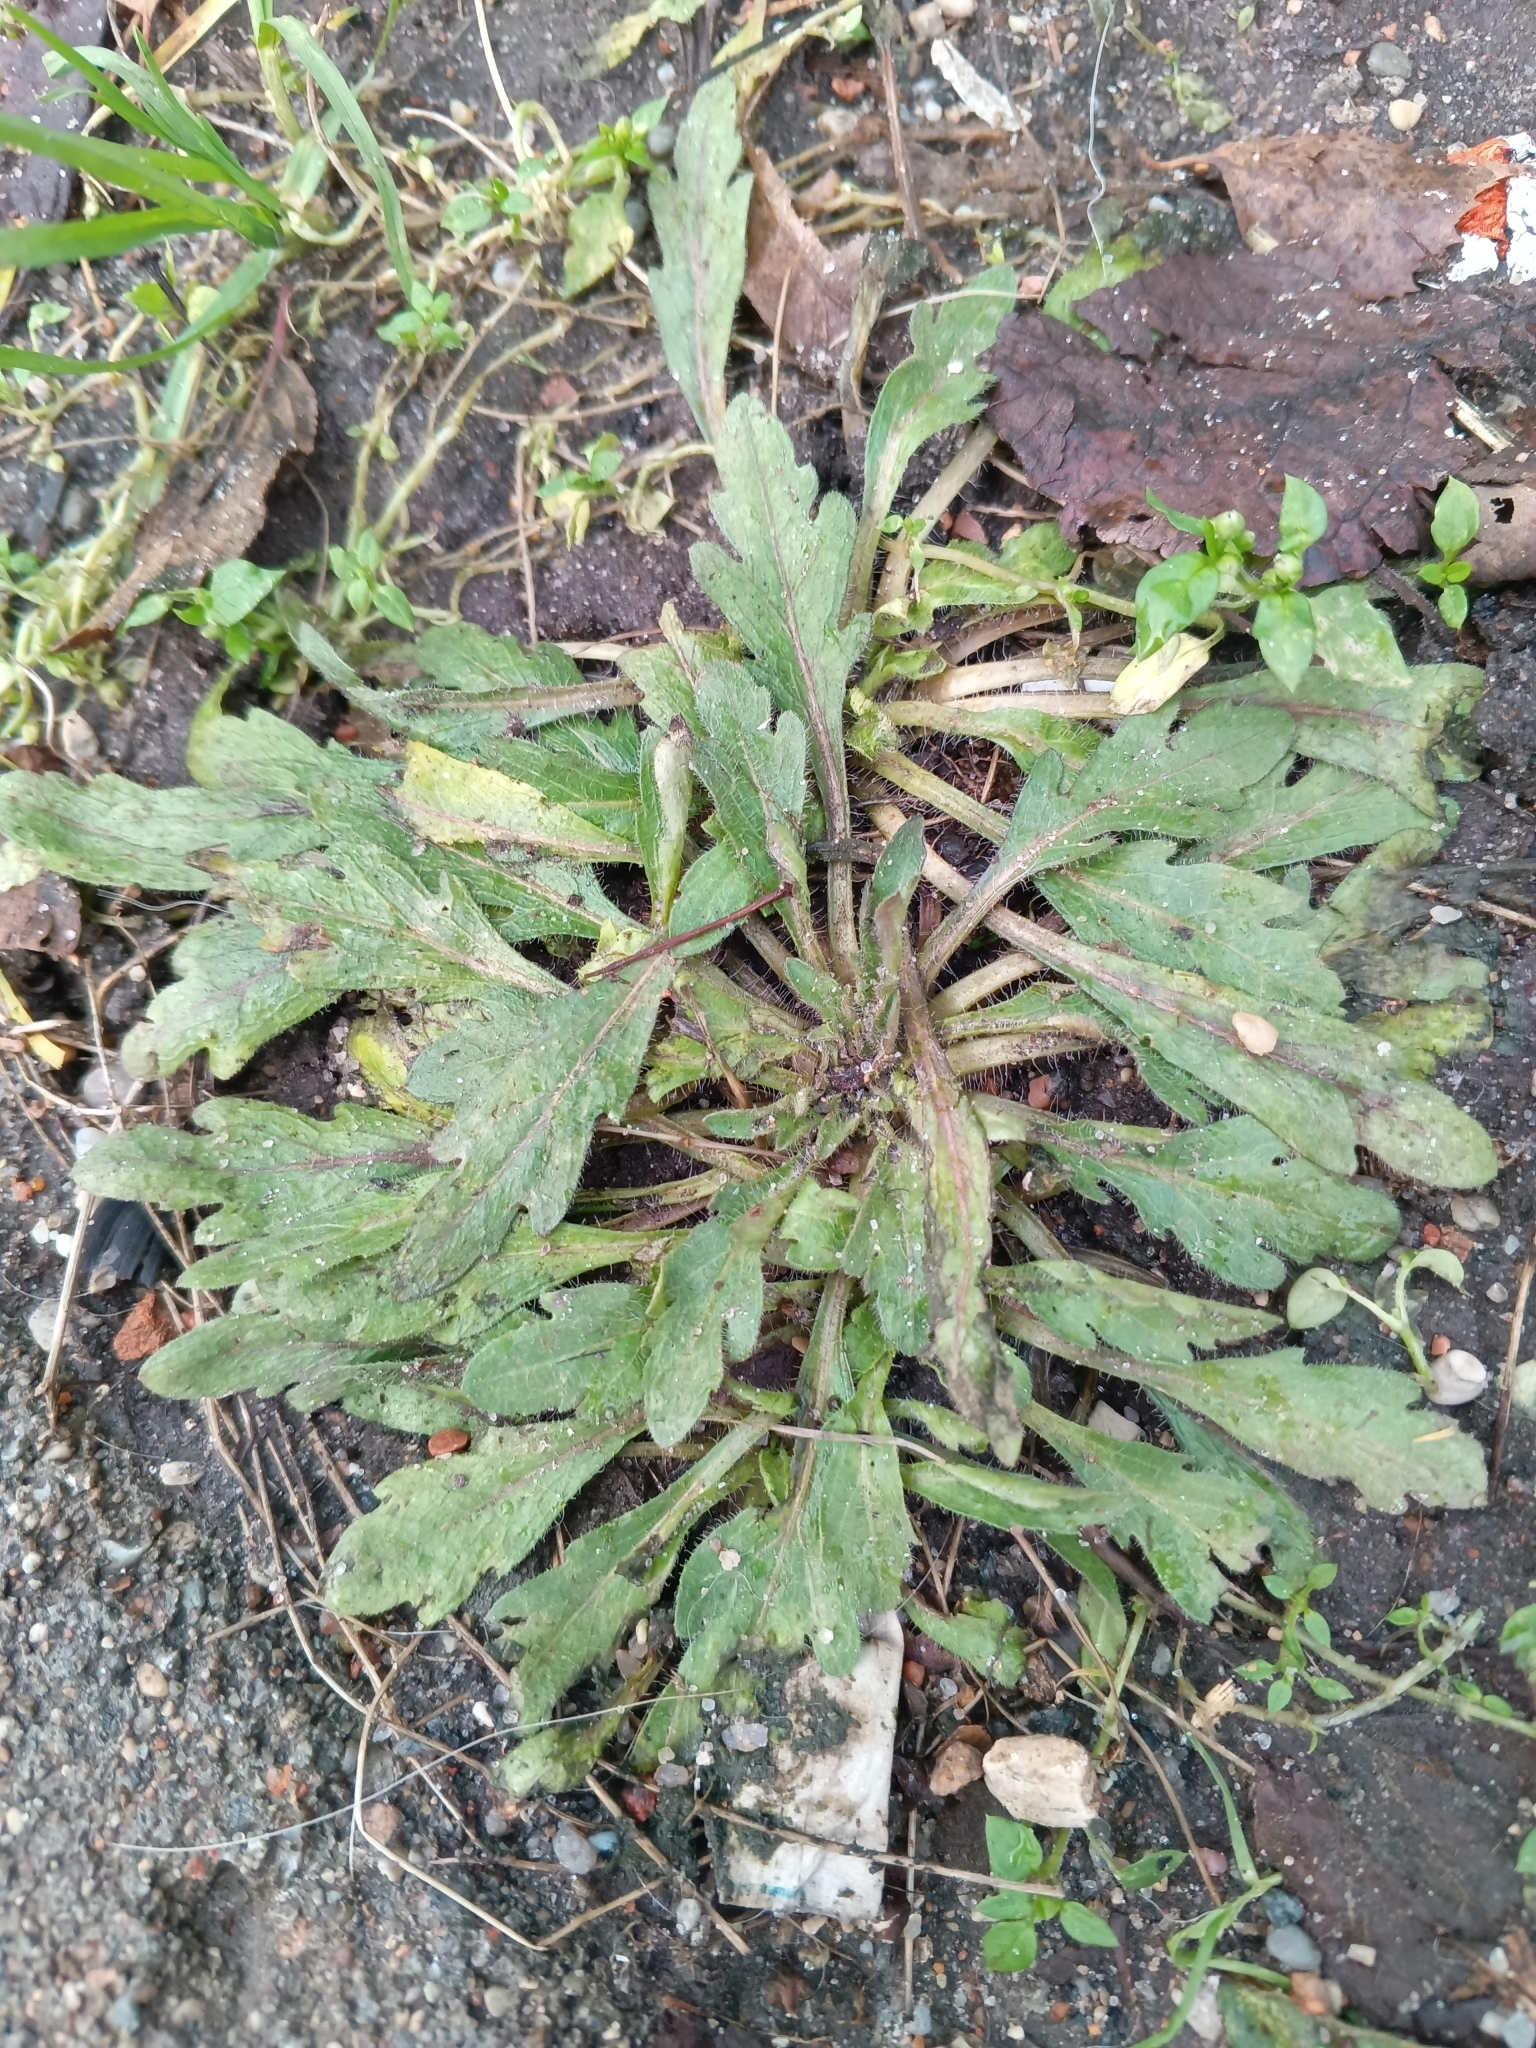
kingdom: Plantae
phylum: Tracheophyta
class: Magnoliopsida
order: Asterales
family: Asteraceae
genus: Erigeron
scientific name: Erigeron canadensis
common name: Canadian fleabane
